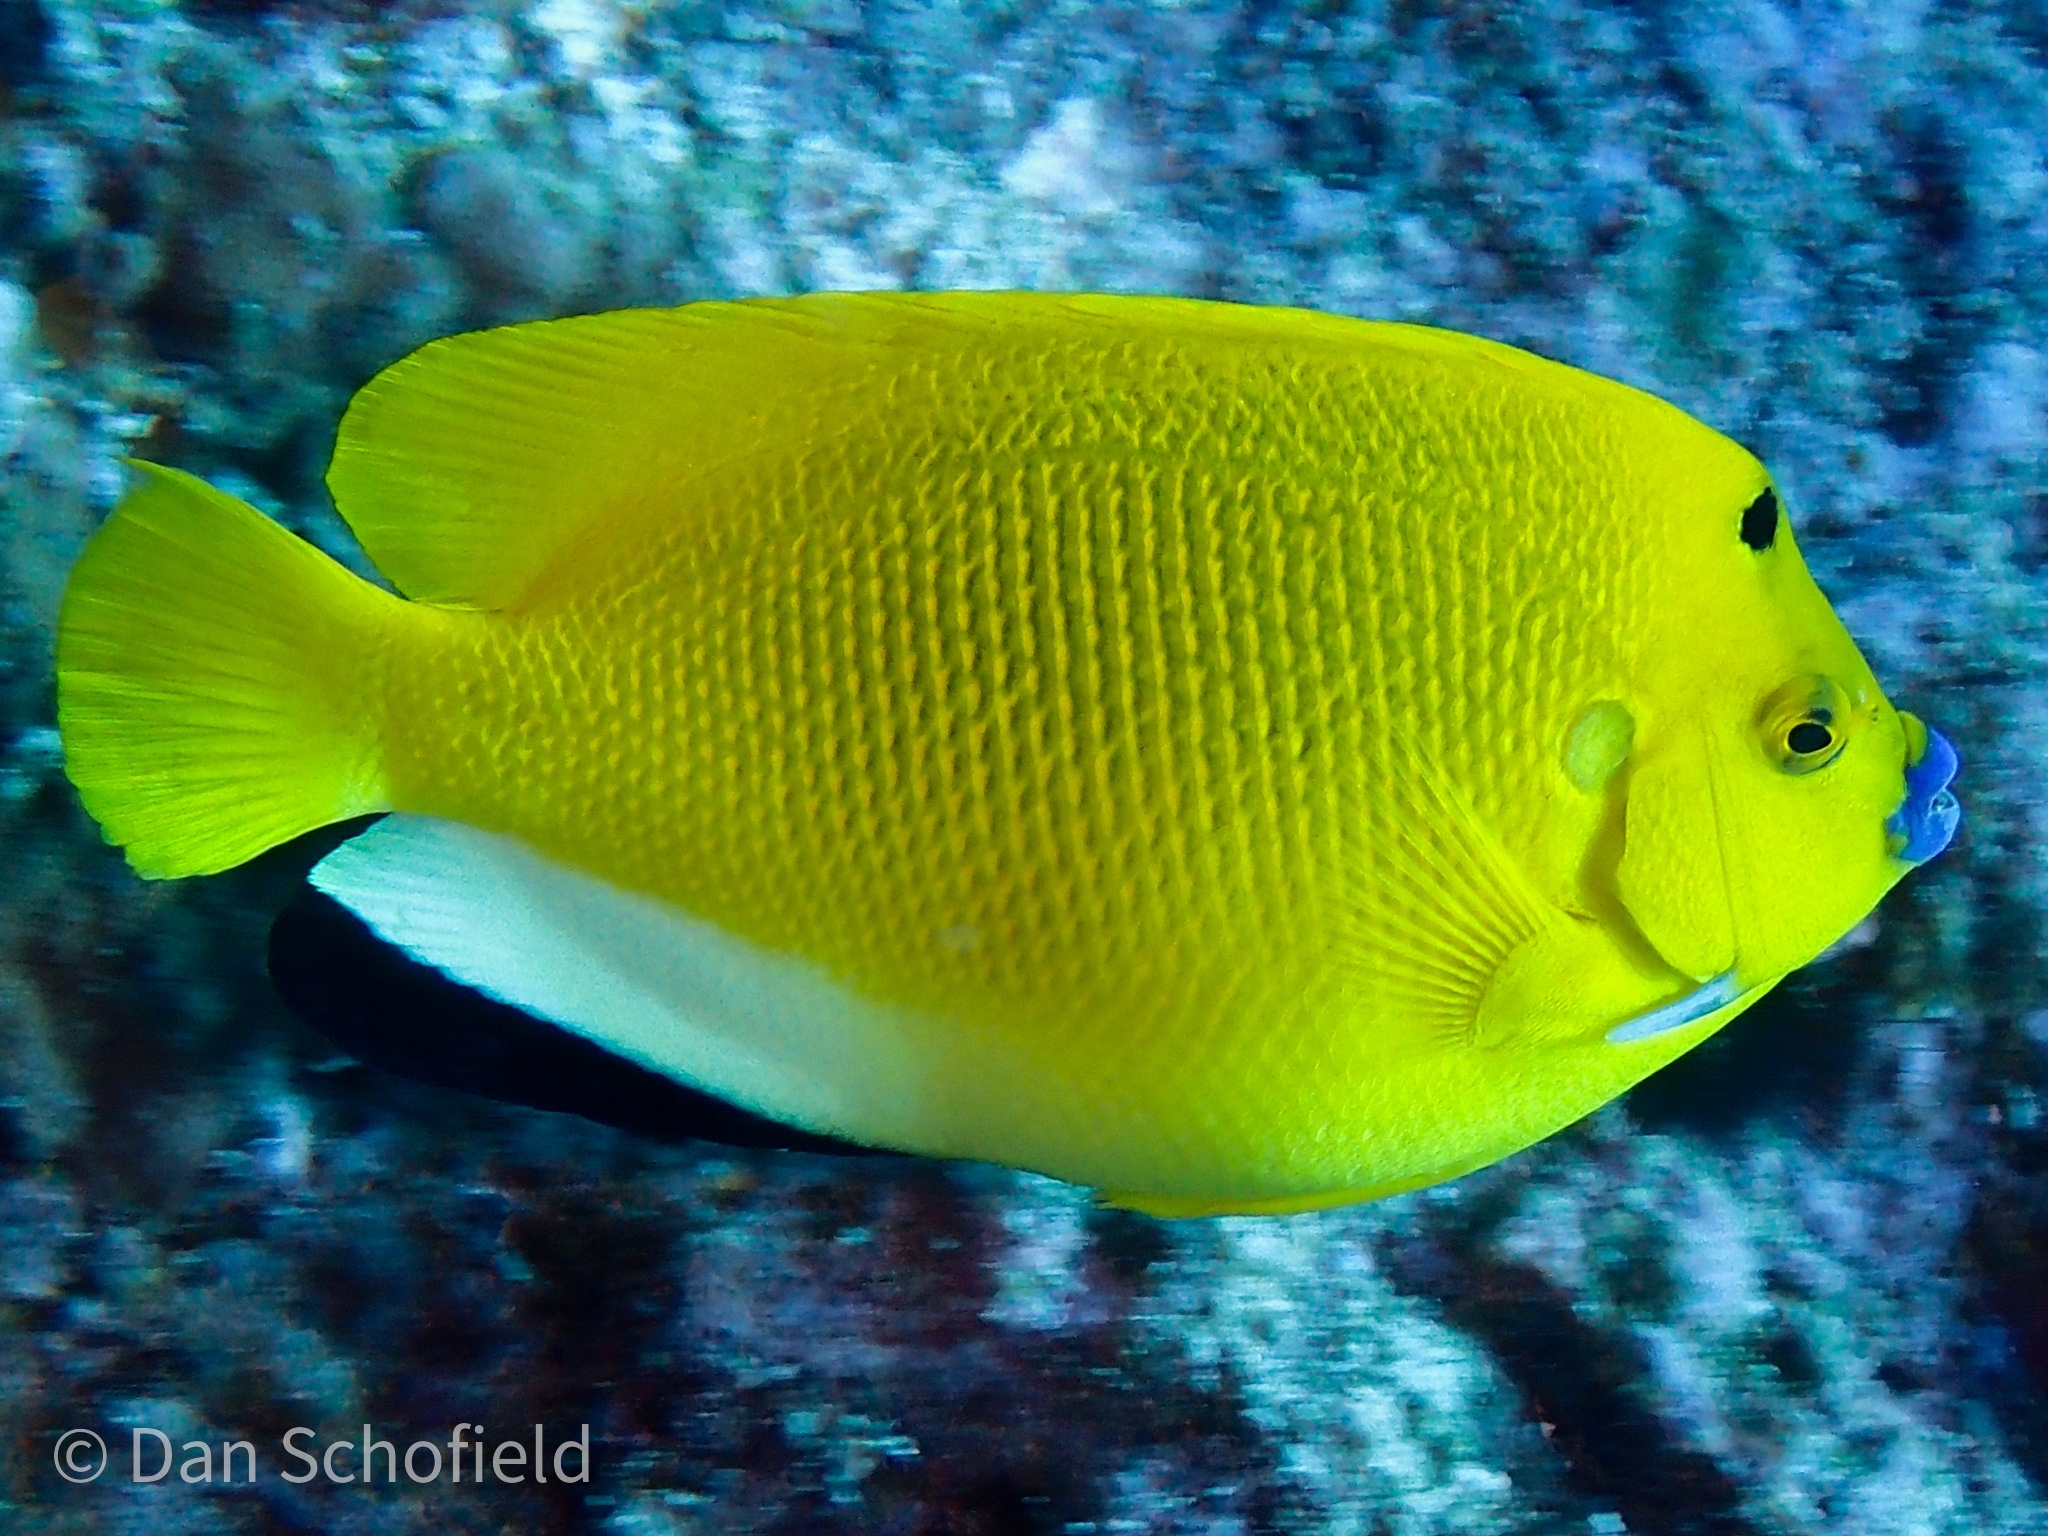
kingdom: Animalia
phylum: Chordata
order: Perciformes
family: Pomacanthidae
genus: Apolemichthys
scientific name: Apolemichthys trimaculatus
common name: Threespot angelfish
